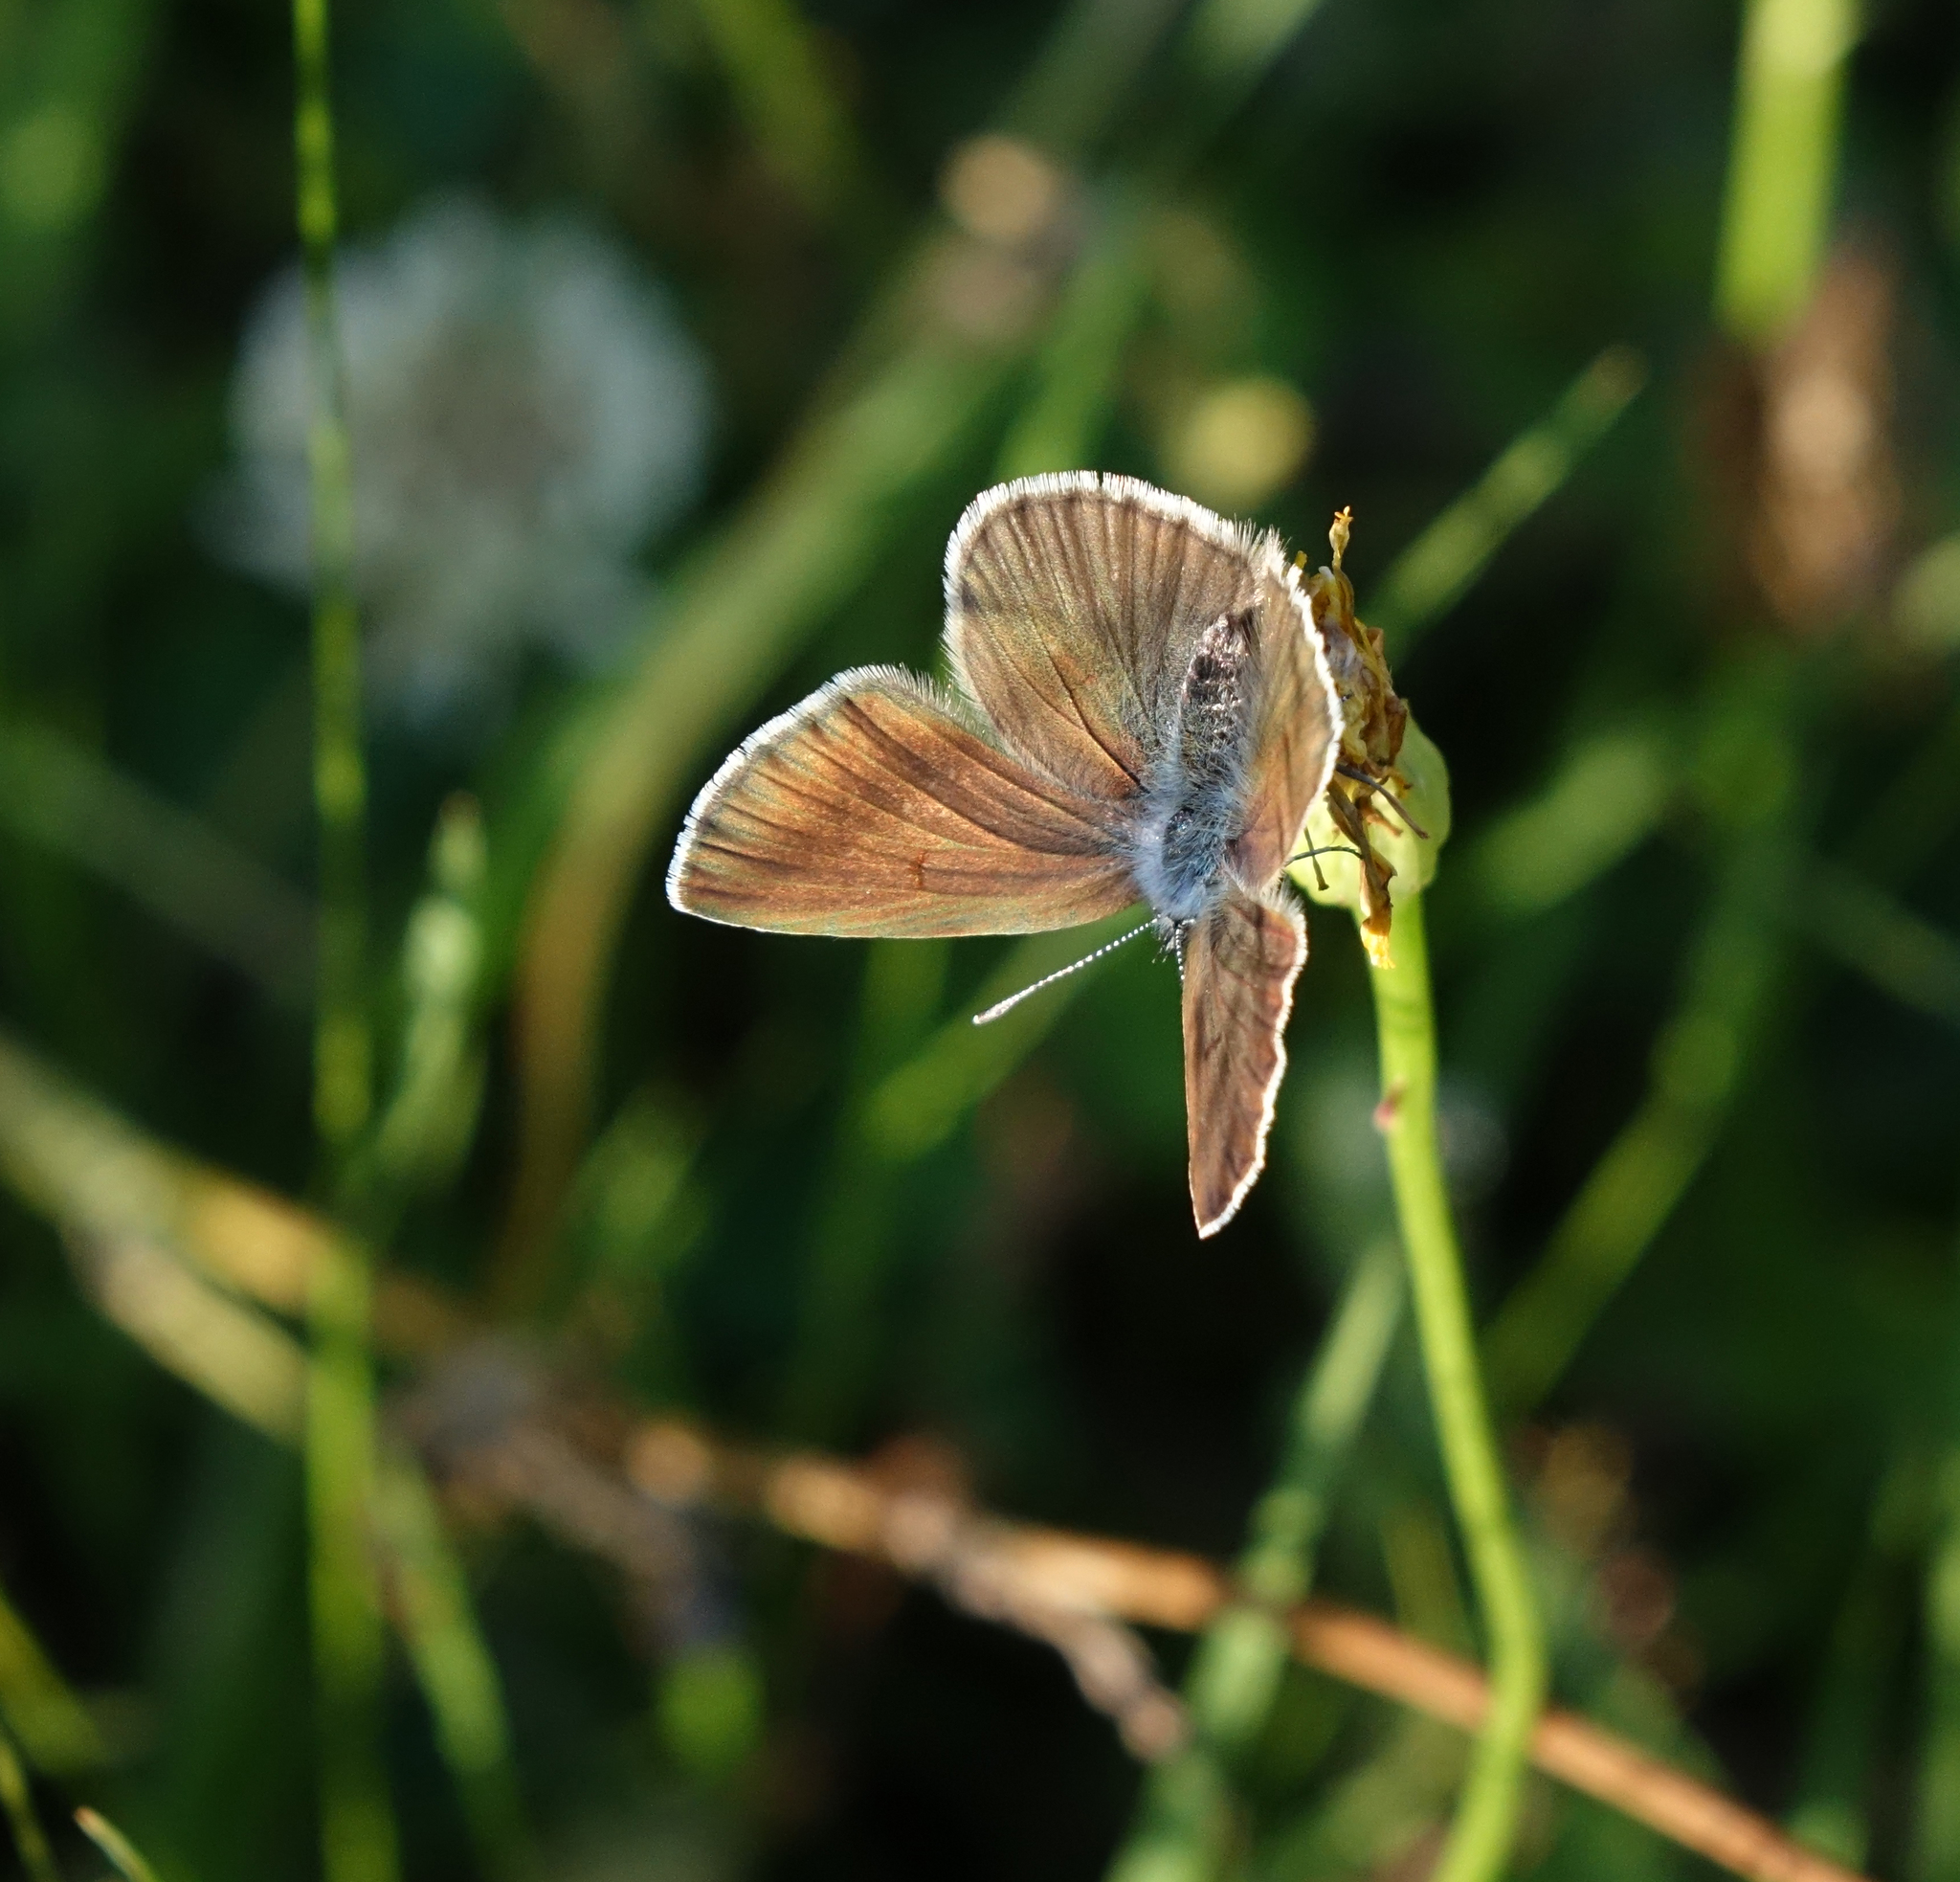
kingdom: Animalia
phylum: Arthropoda
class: Insecta
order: Lepidoptera
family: Lycaenidae
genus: Cyaniris
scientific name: Cyaniris semiargus
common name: Mazarine blue
